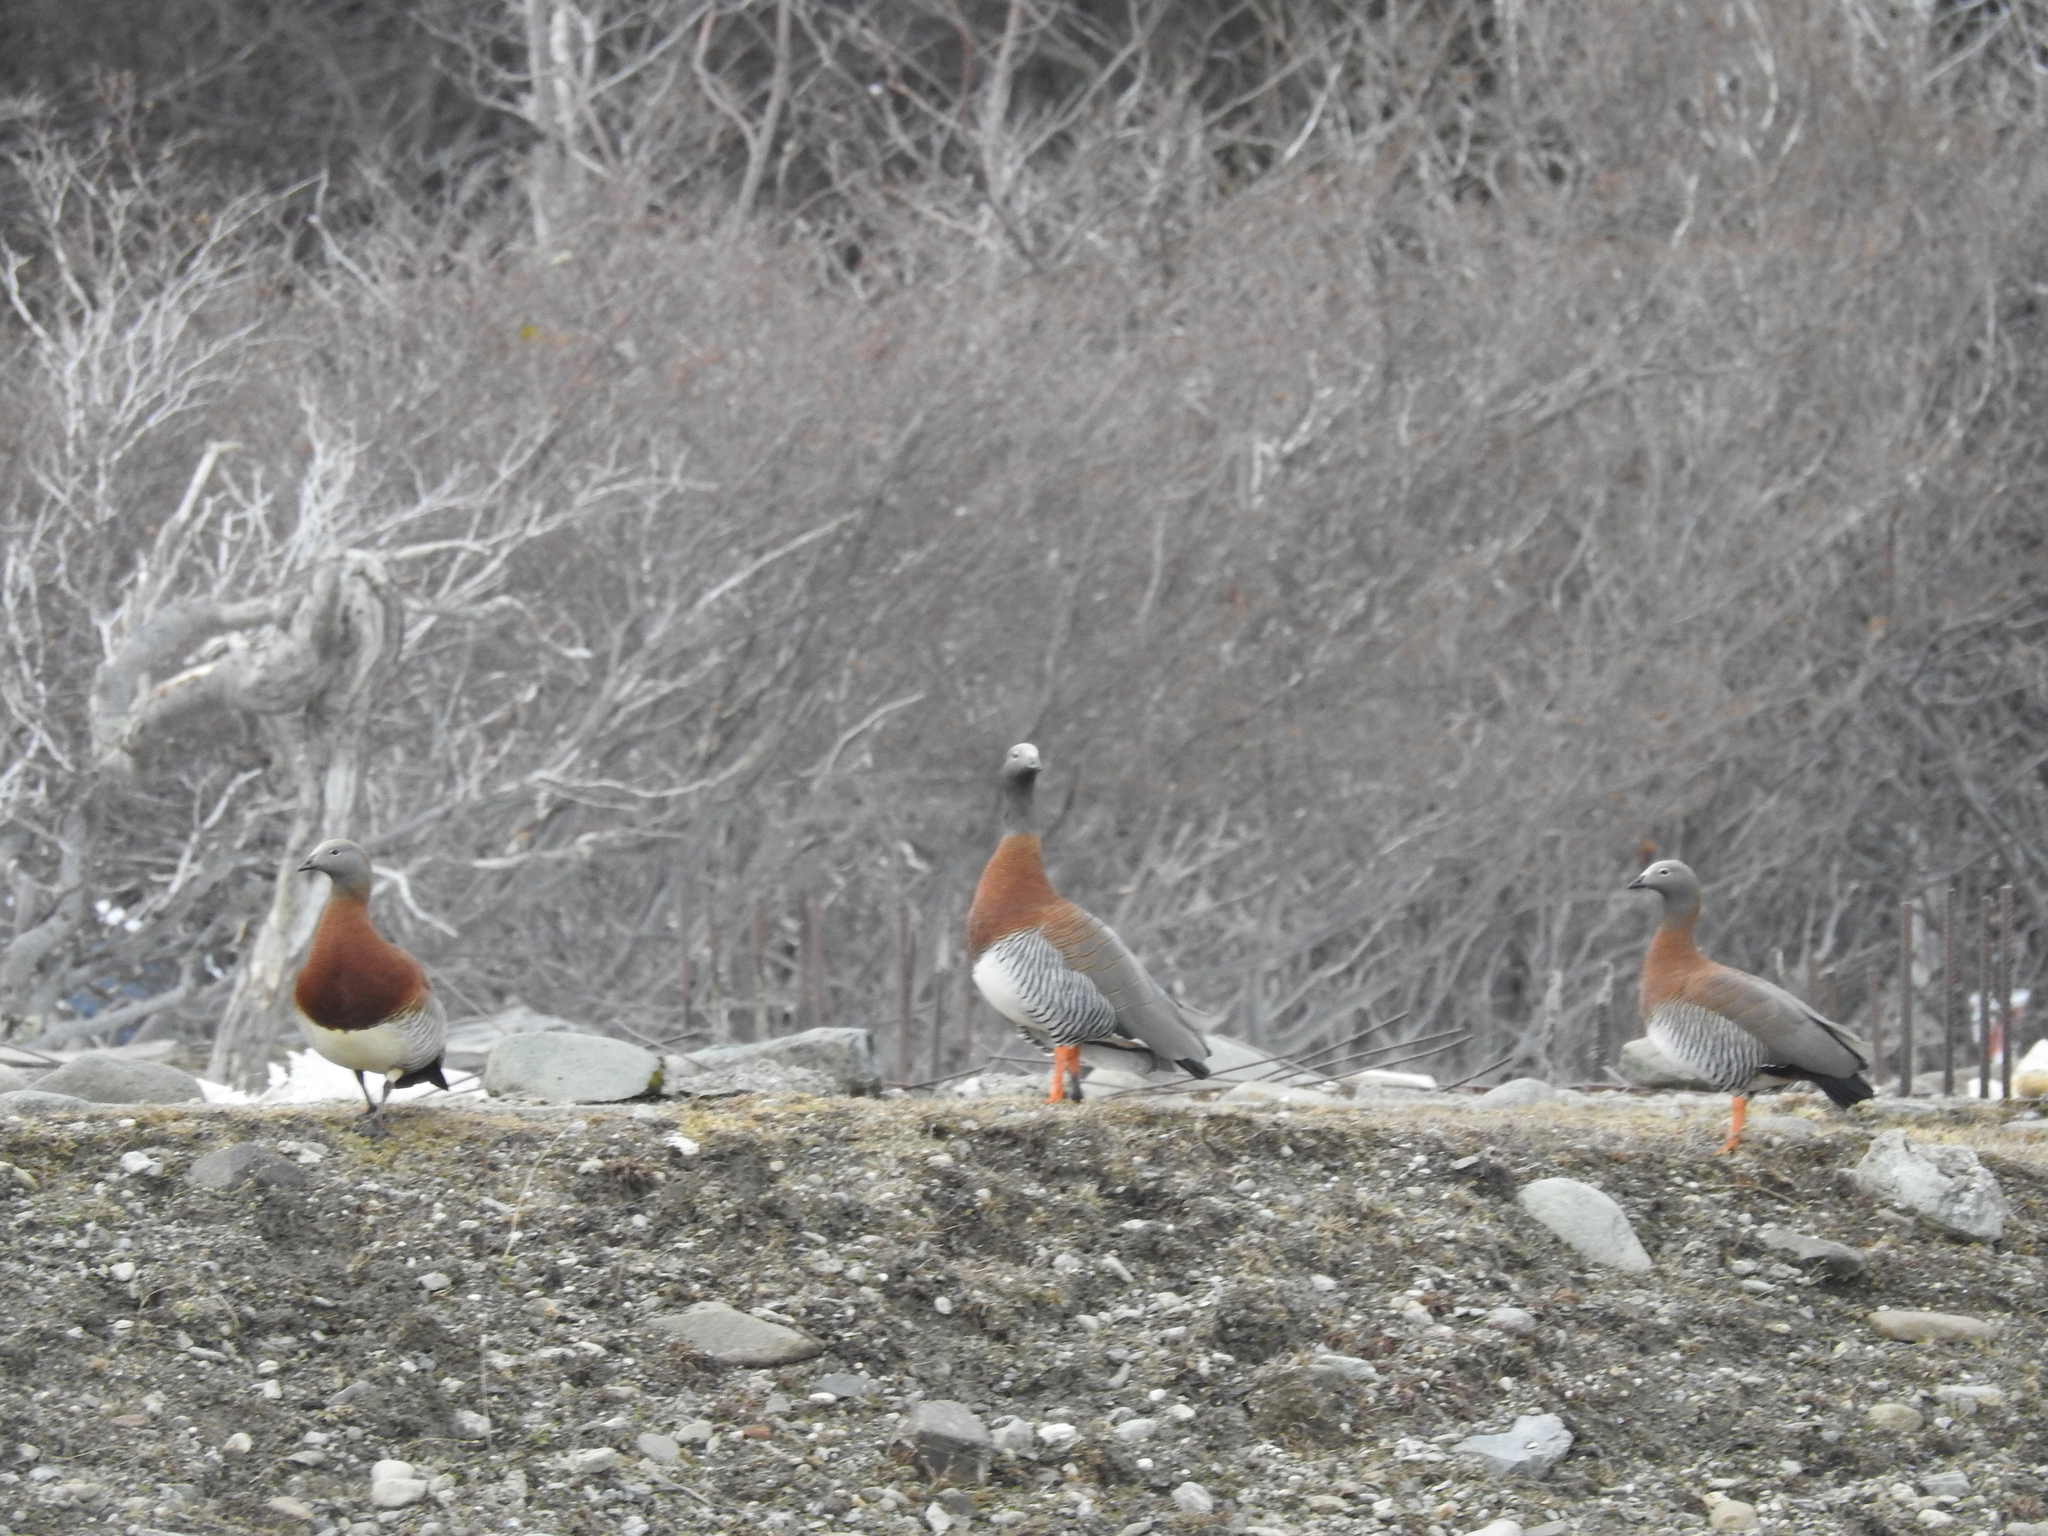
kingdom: Animalia
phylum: Chordata
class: Aves
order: Anseriformes
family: Anatidae
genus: Chloephaga
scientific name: Chloephaga poliocephala
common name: Ashy-headed goose
